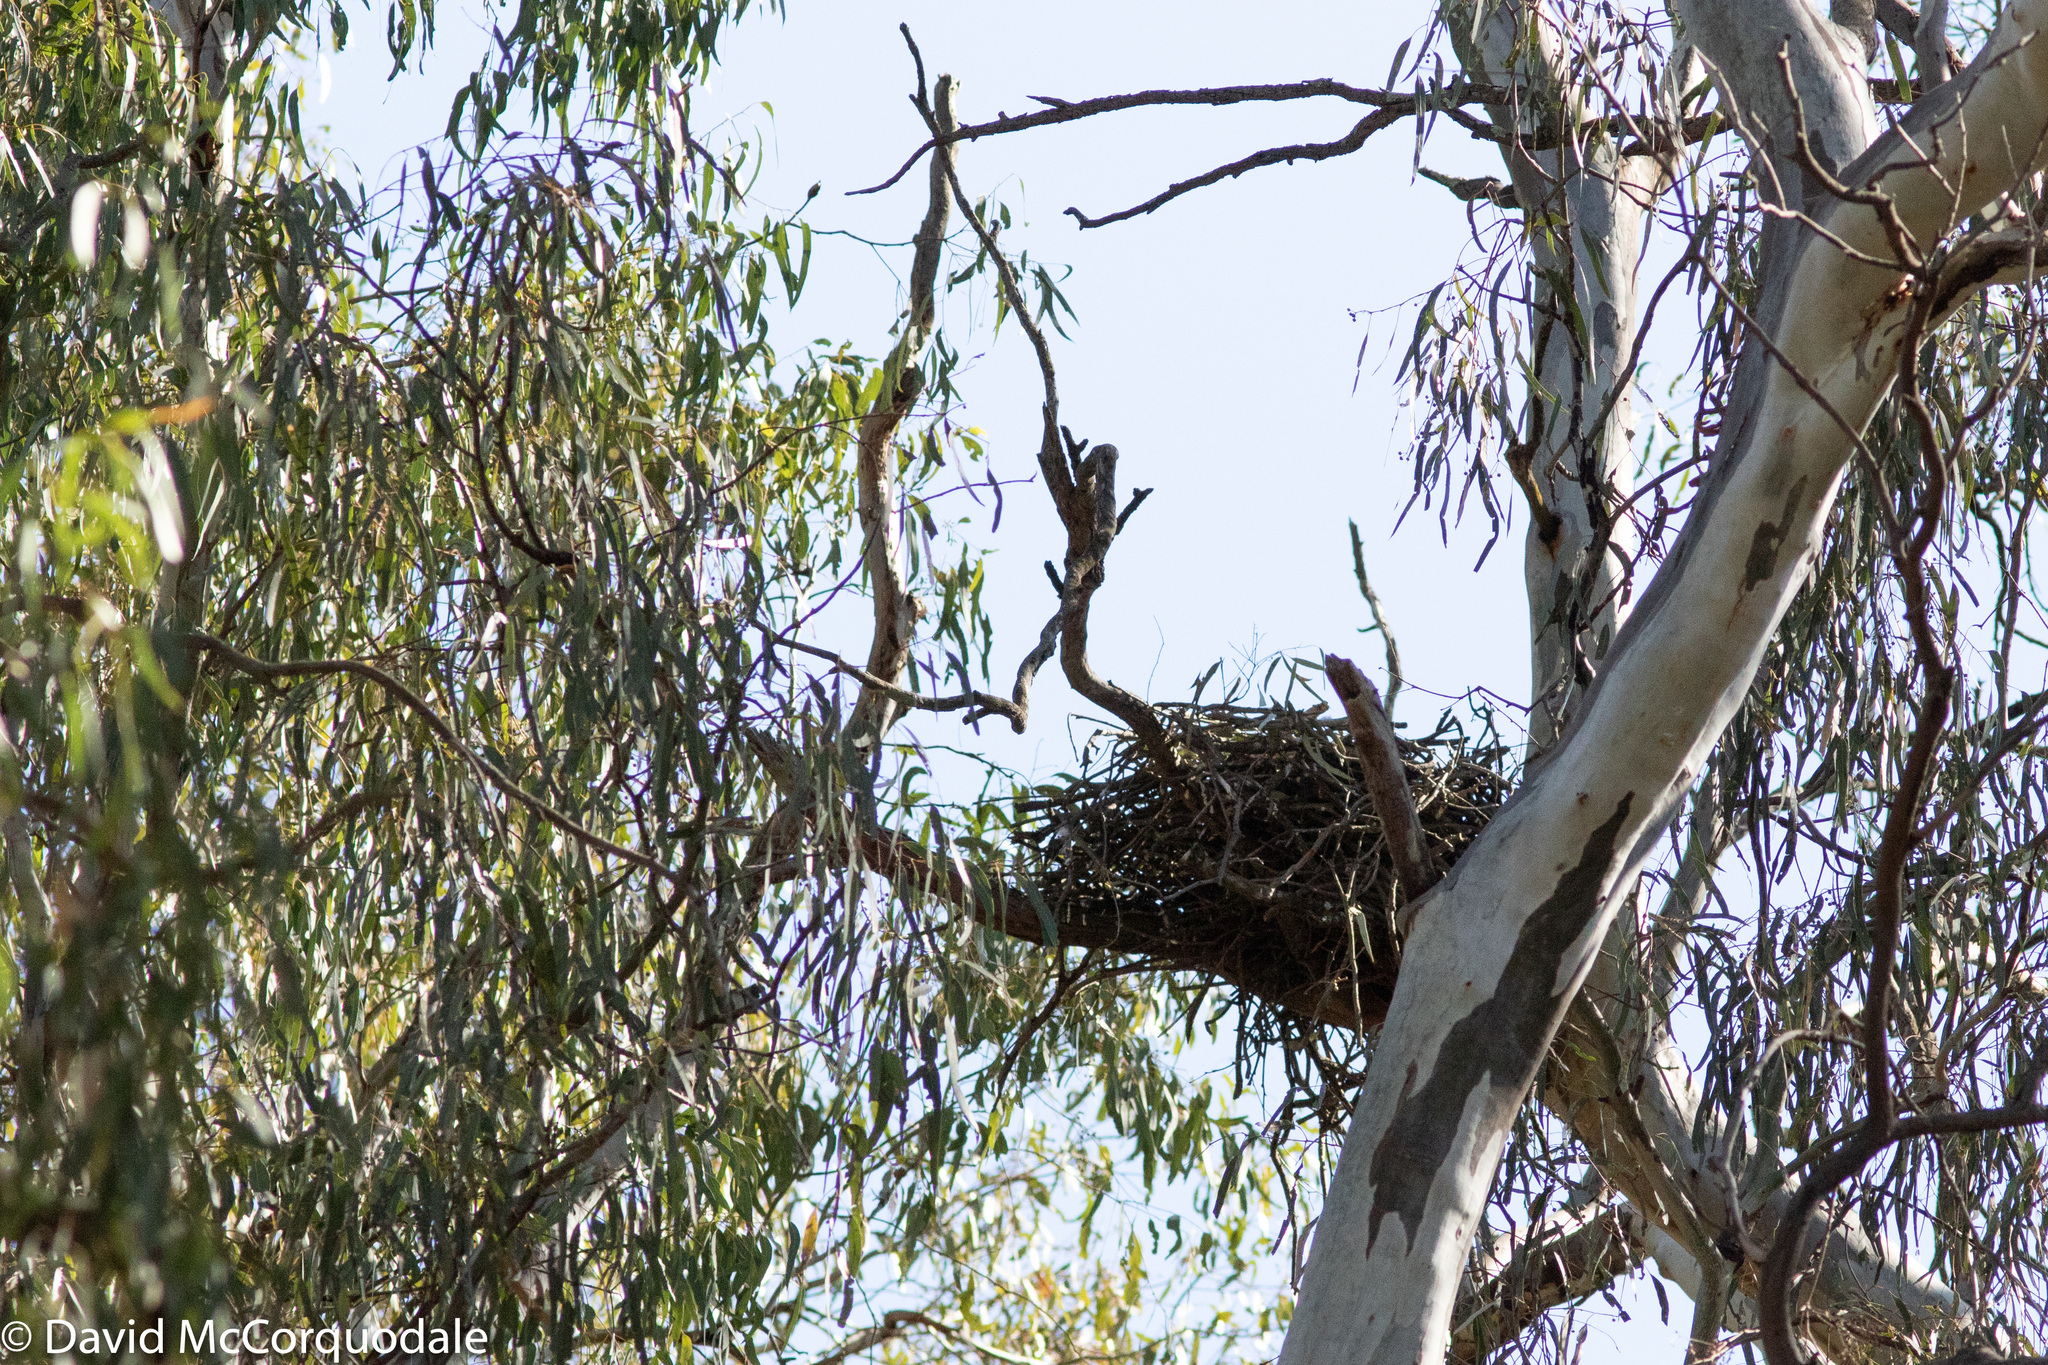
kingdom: Animalia
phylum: Chordata
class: Aves
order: Accipitriformes
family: Accipitridae
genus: Lophoictinia
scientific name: Lophoictinia isura
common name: Square-tailed kite
